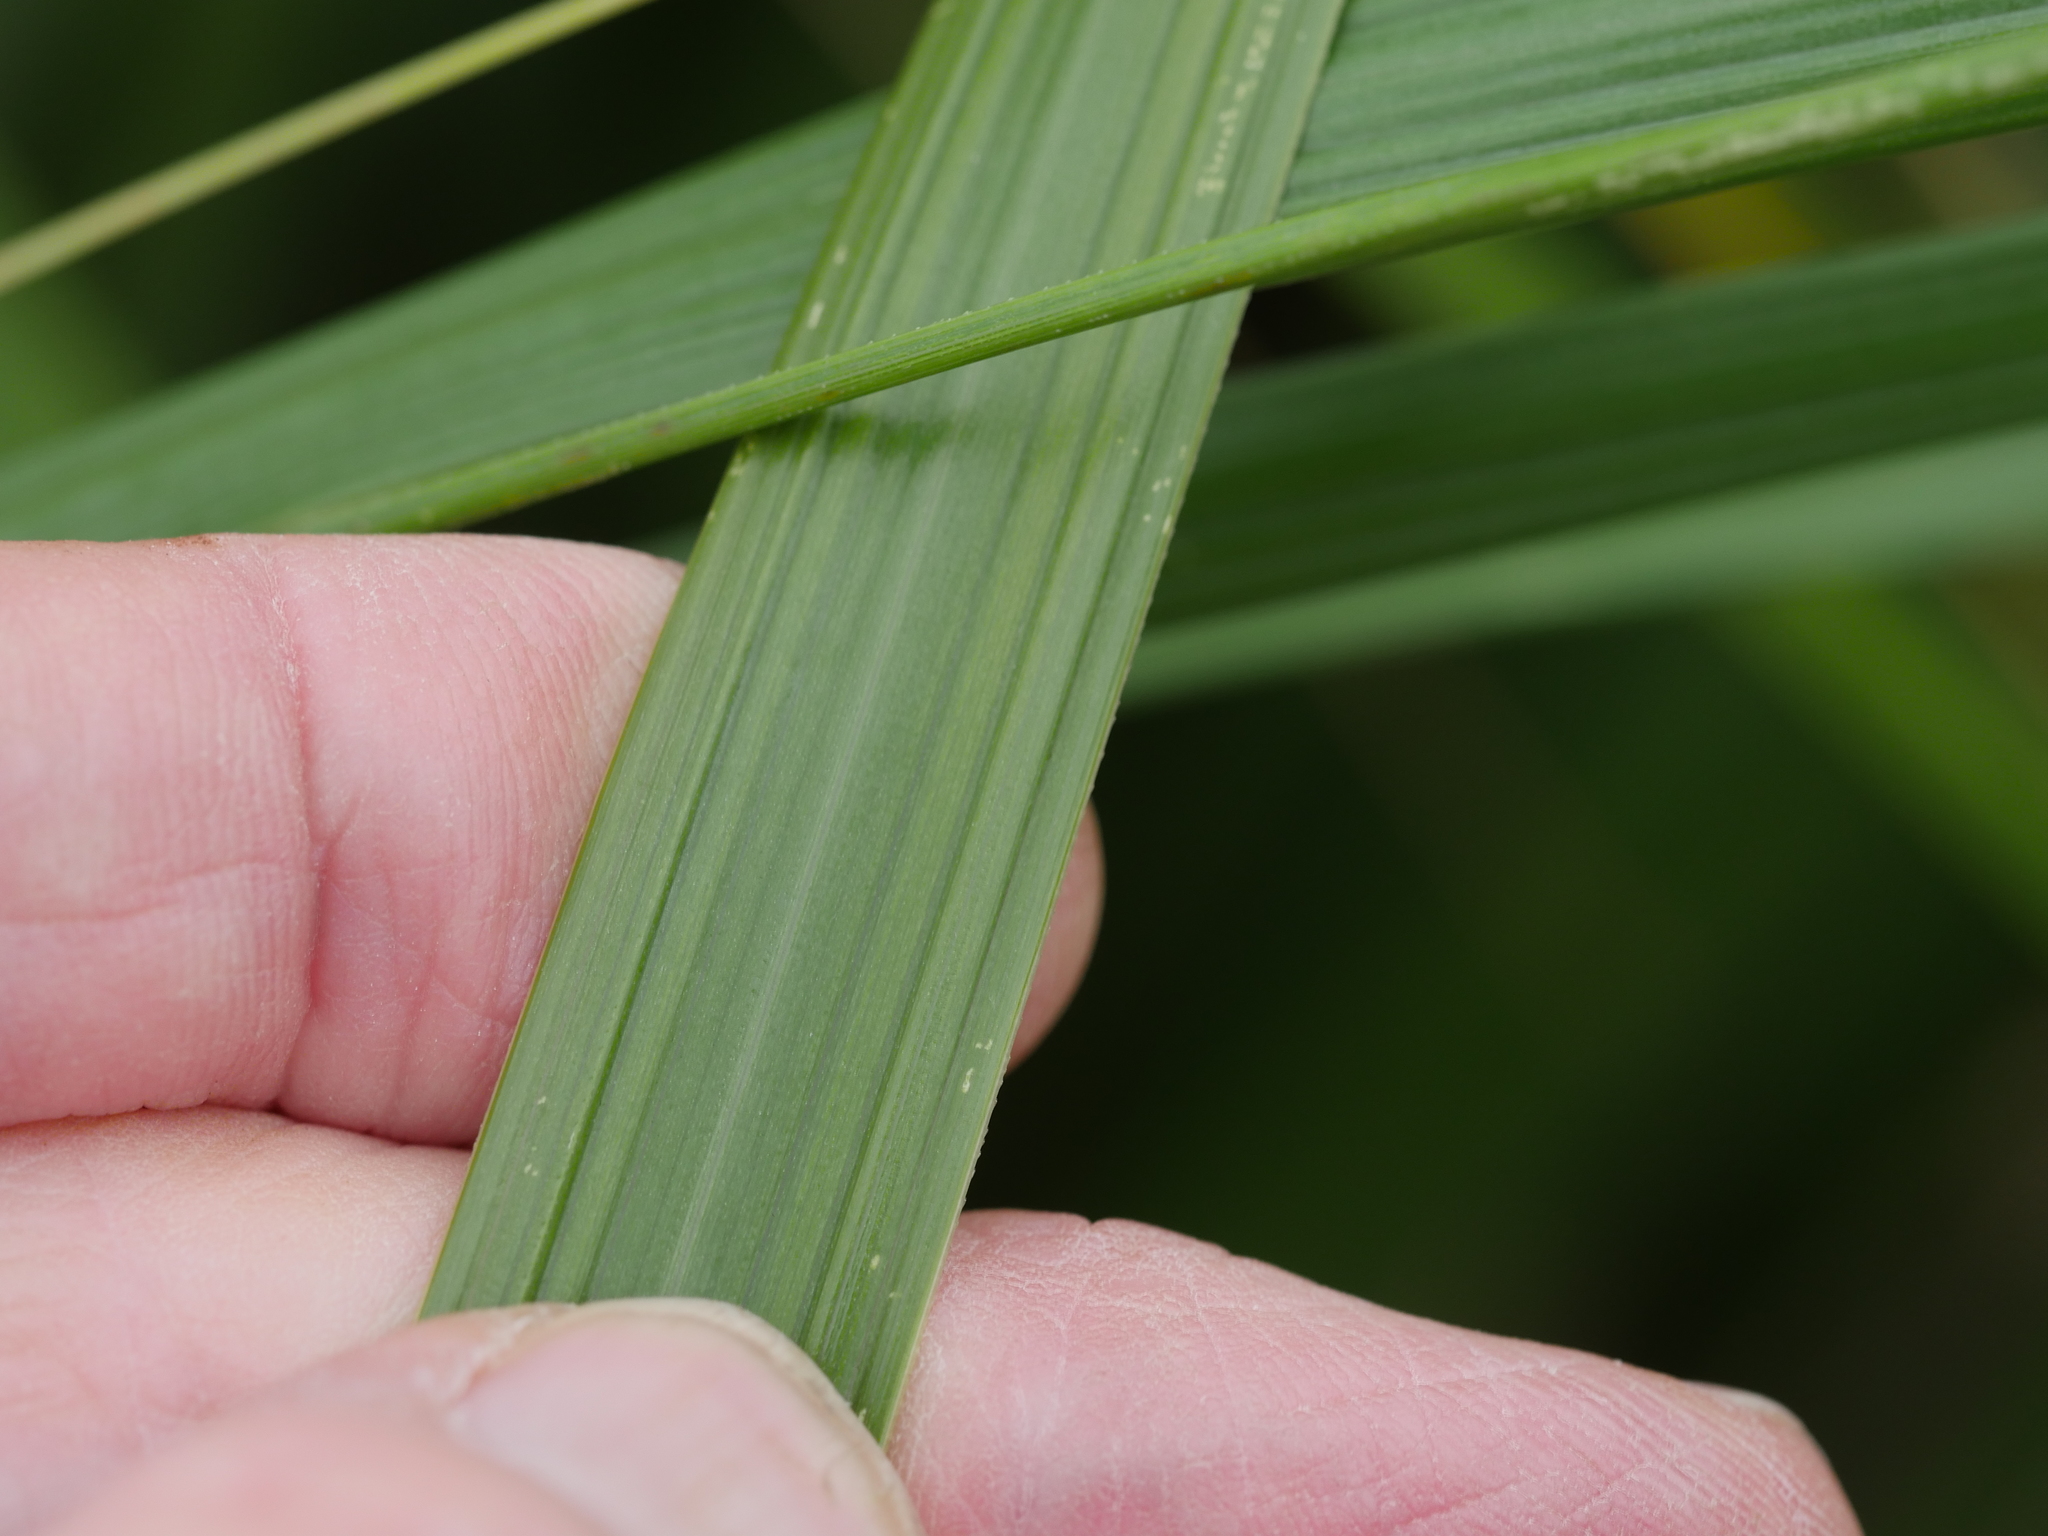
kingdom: Plantae
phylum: Tracheophyta
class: Liliopsida
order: Poales
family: Poaceae
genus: Austroderia
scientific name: Austroderia splendens
